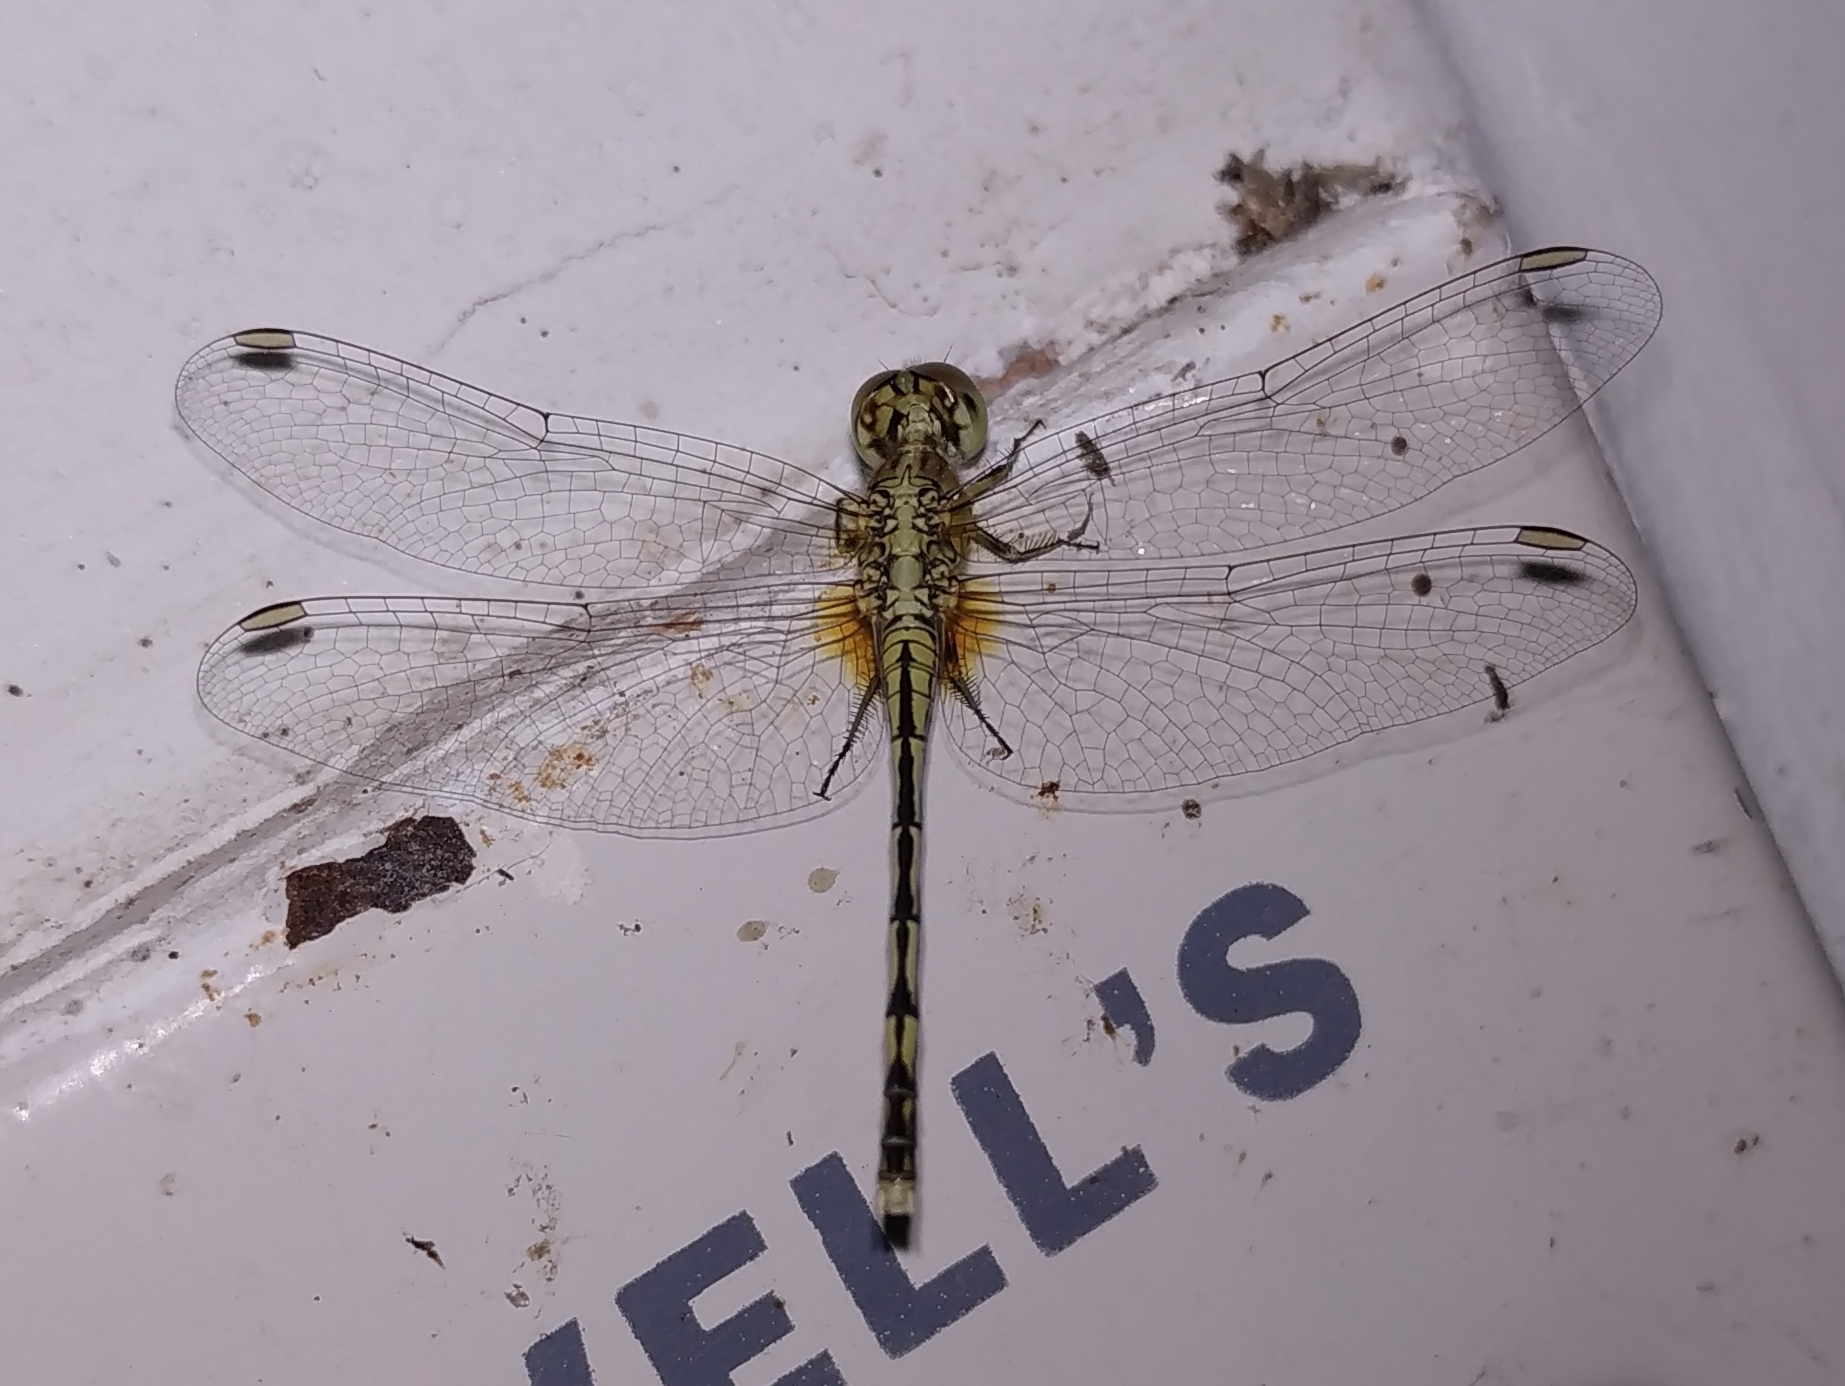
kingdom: Animalia
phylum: Arthropoda
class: Insecta
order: Odonata
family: Libellulidae
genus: Diplacodes
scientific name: Diplacodes trivialis
